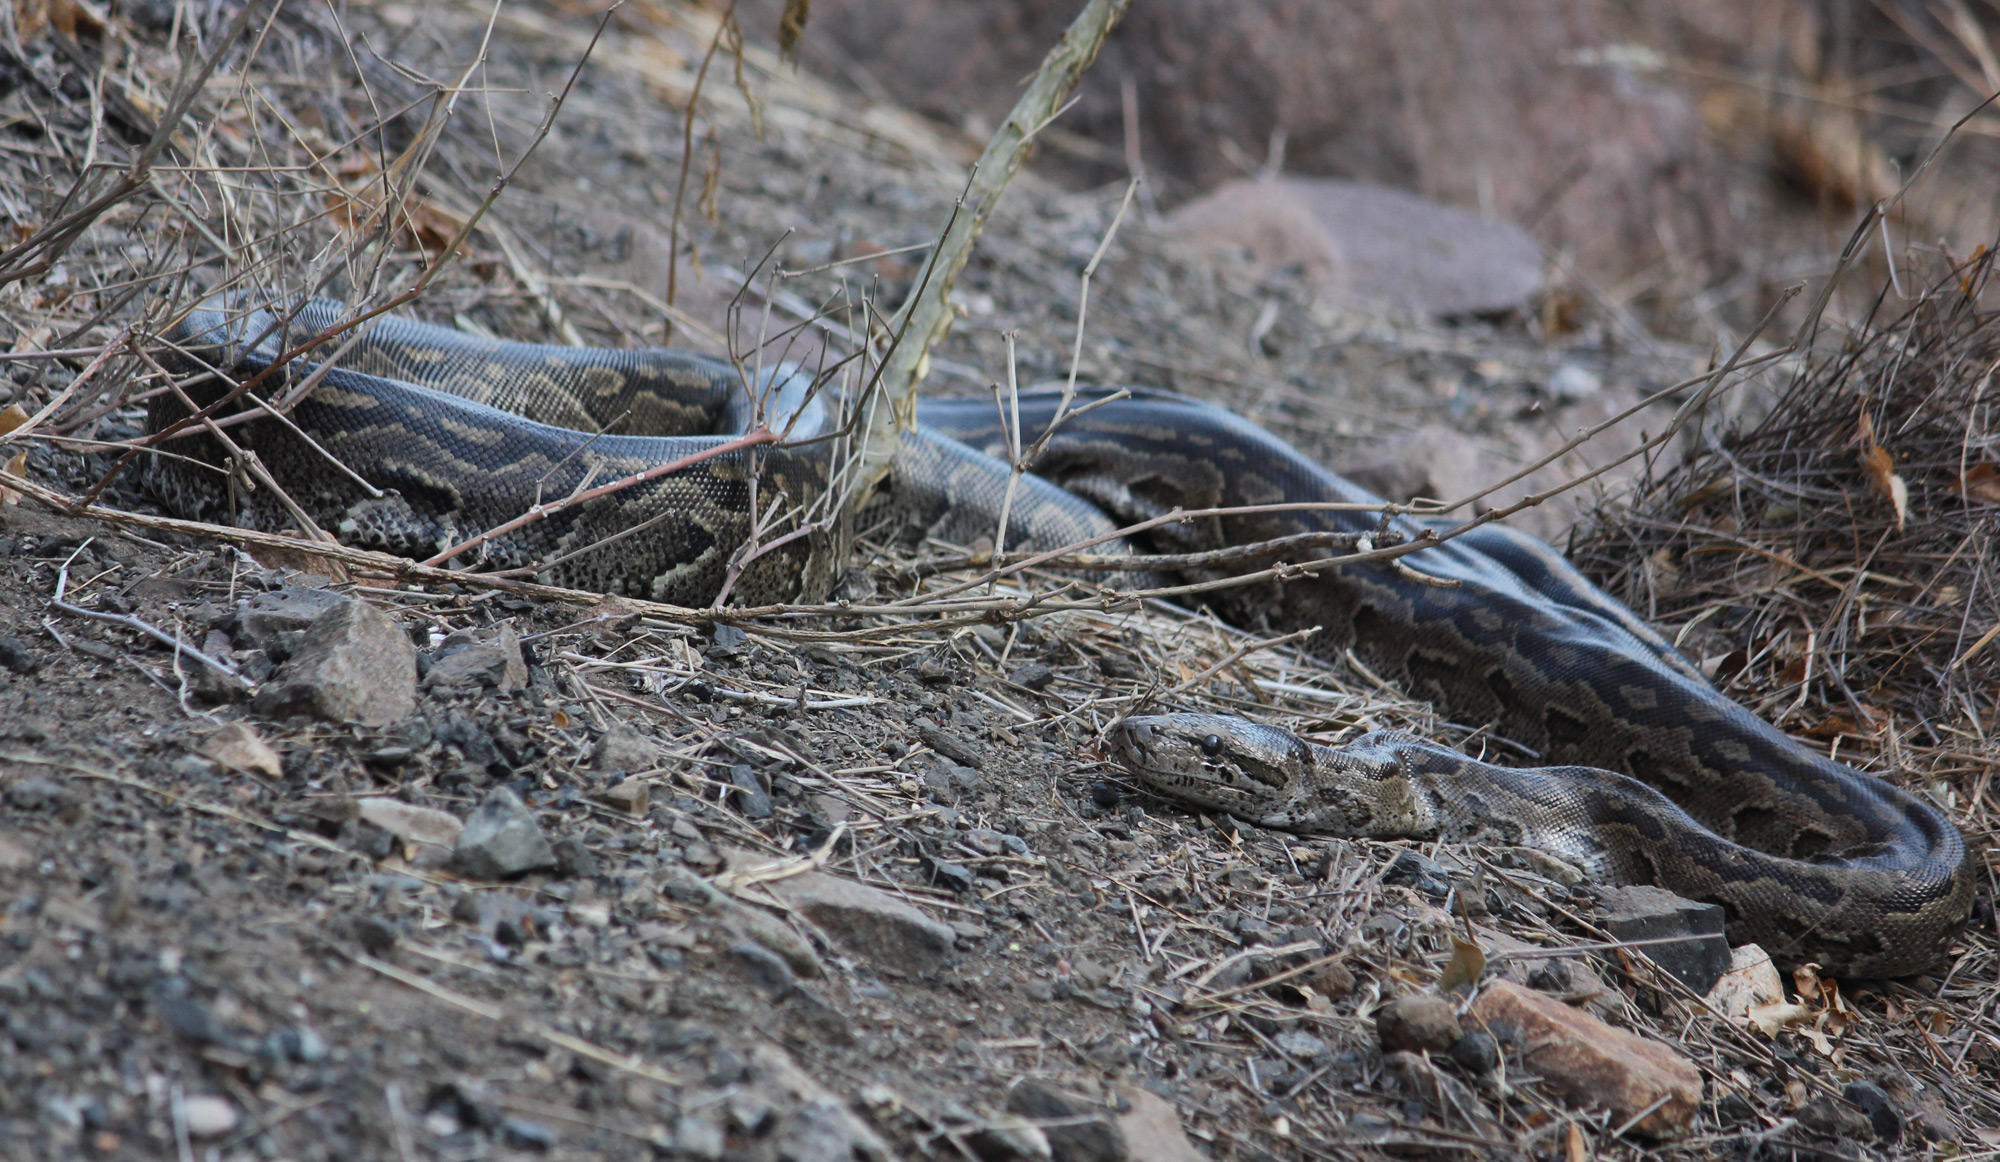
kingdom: Animalia
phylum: Chordata
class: Squamata
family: Pythonidae
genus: Python
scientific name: Python natalensis
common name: Southern african rock python
